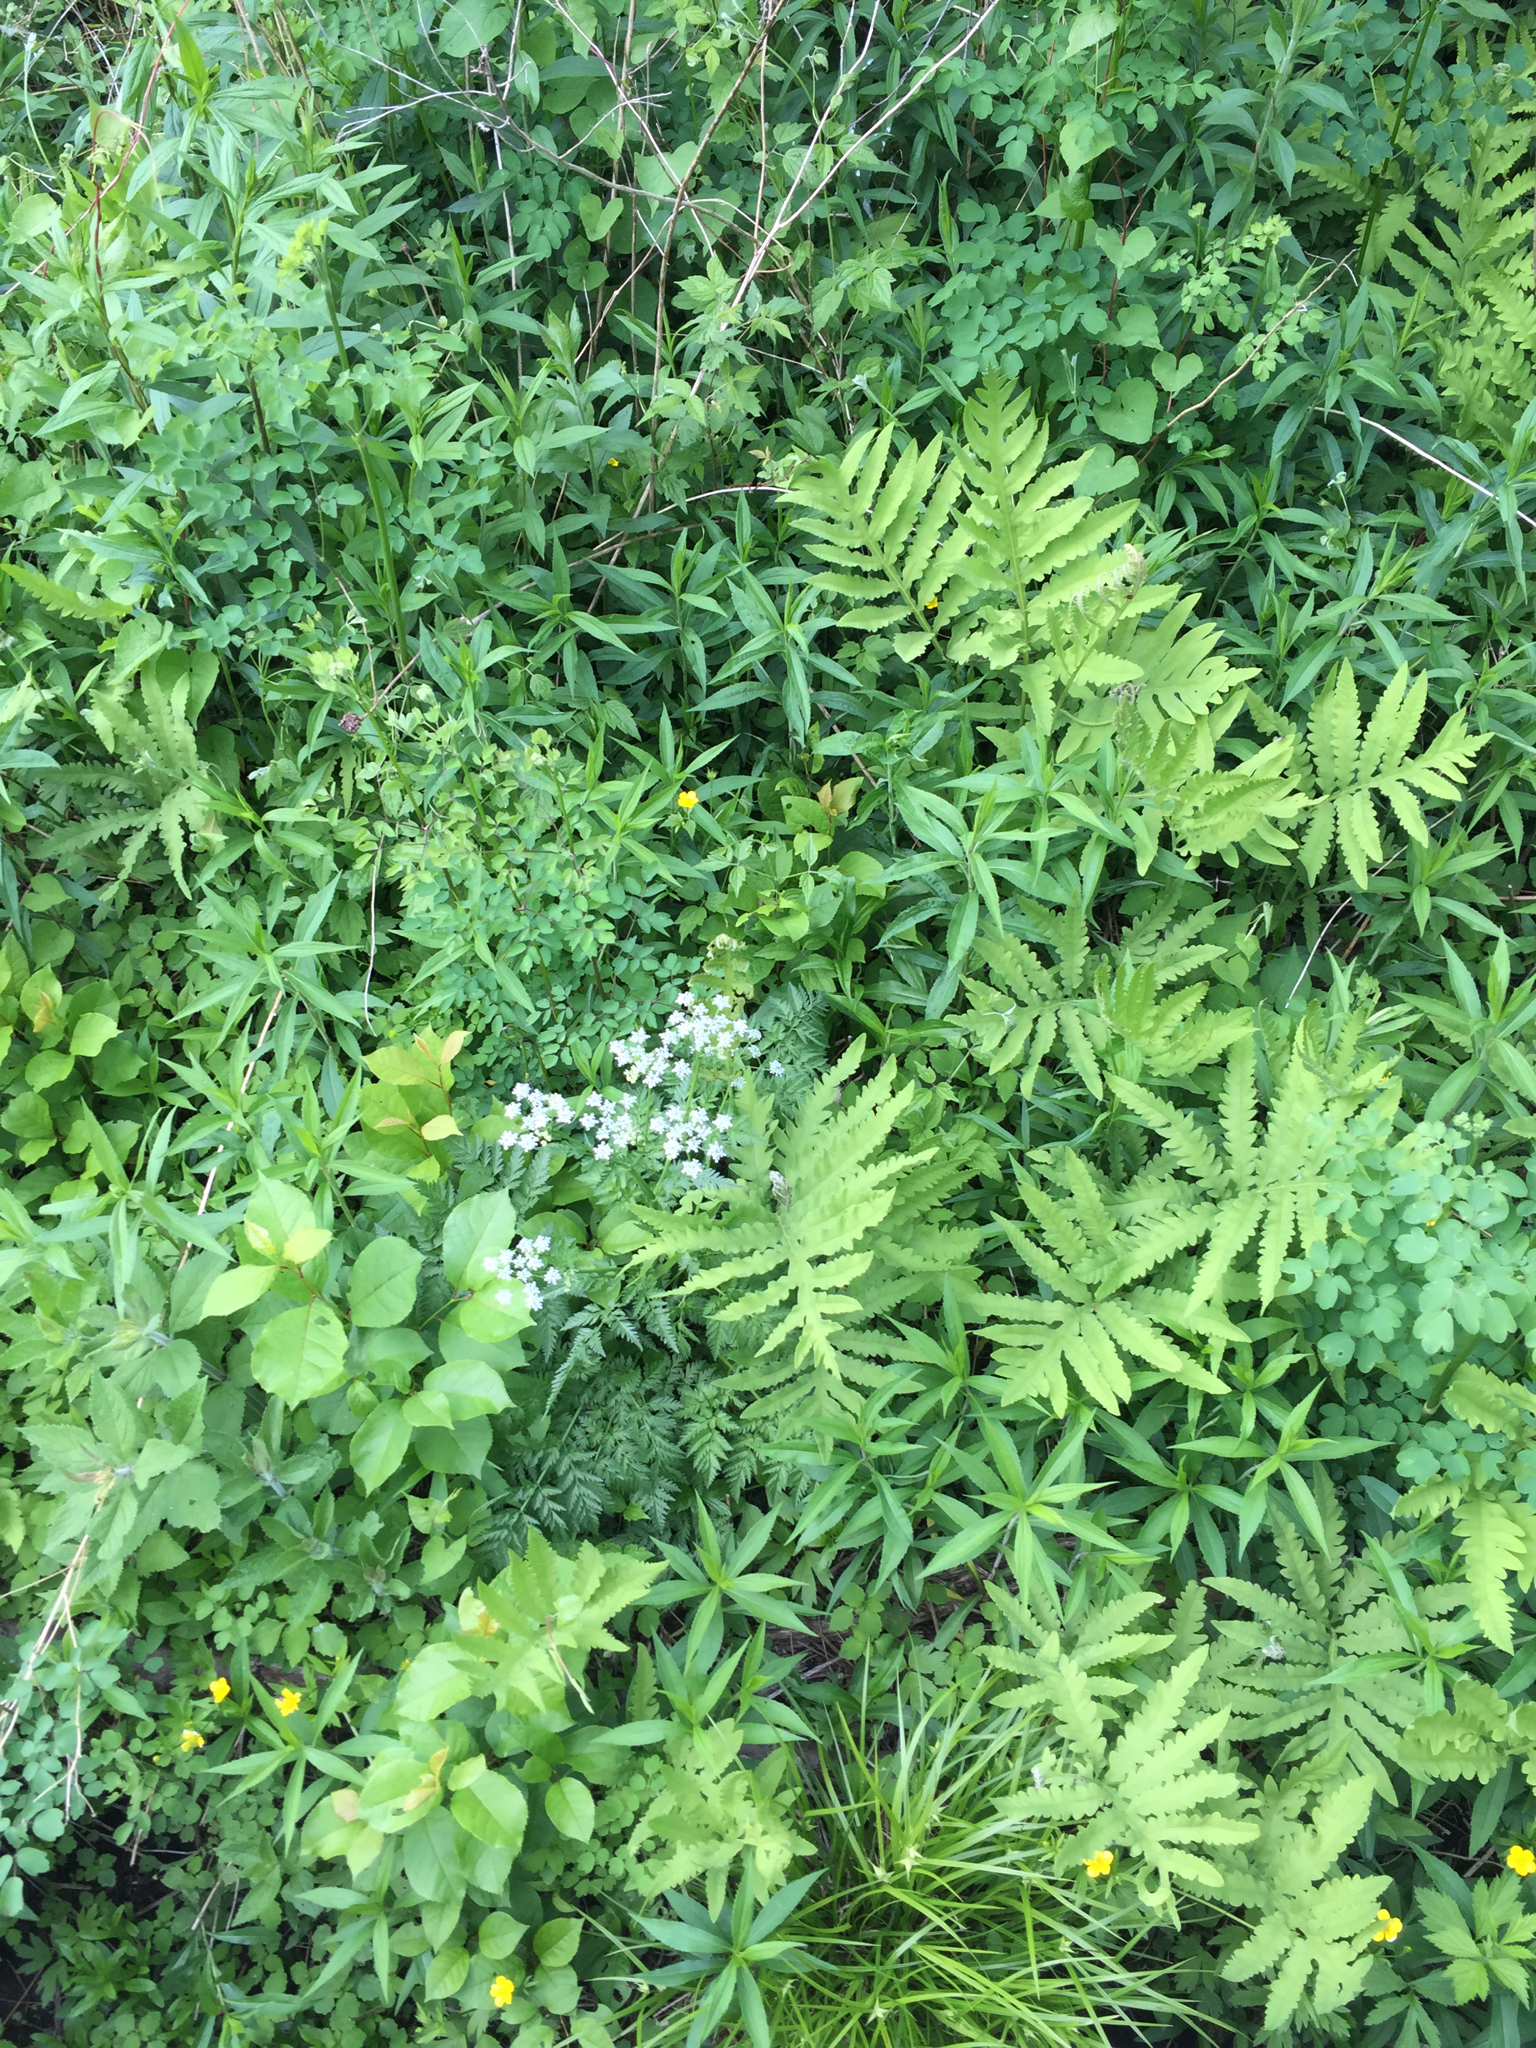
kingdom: Plantae
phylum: Tracheophyta
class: Magnoliopsida
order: Apiales
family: Apiaceae
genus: Anthriscus
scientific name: Anthriscus sylvestris
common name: Cow parsley
